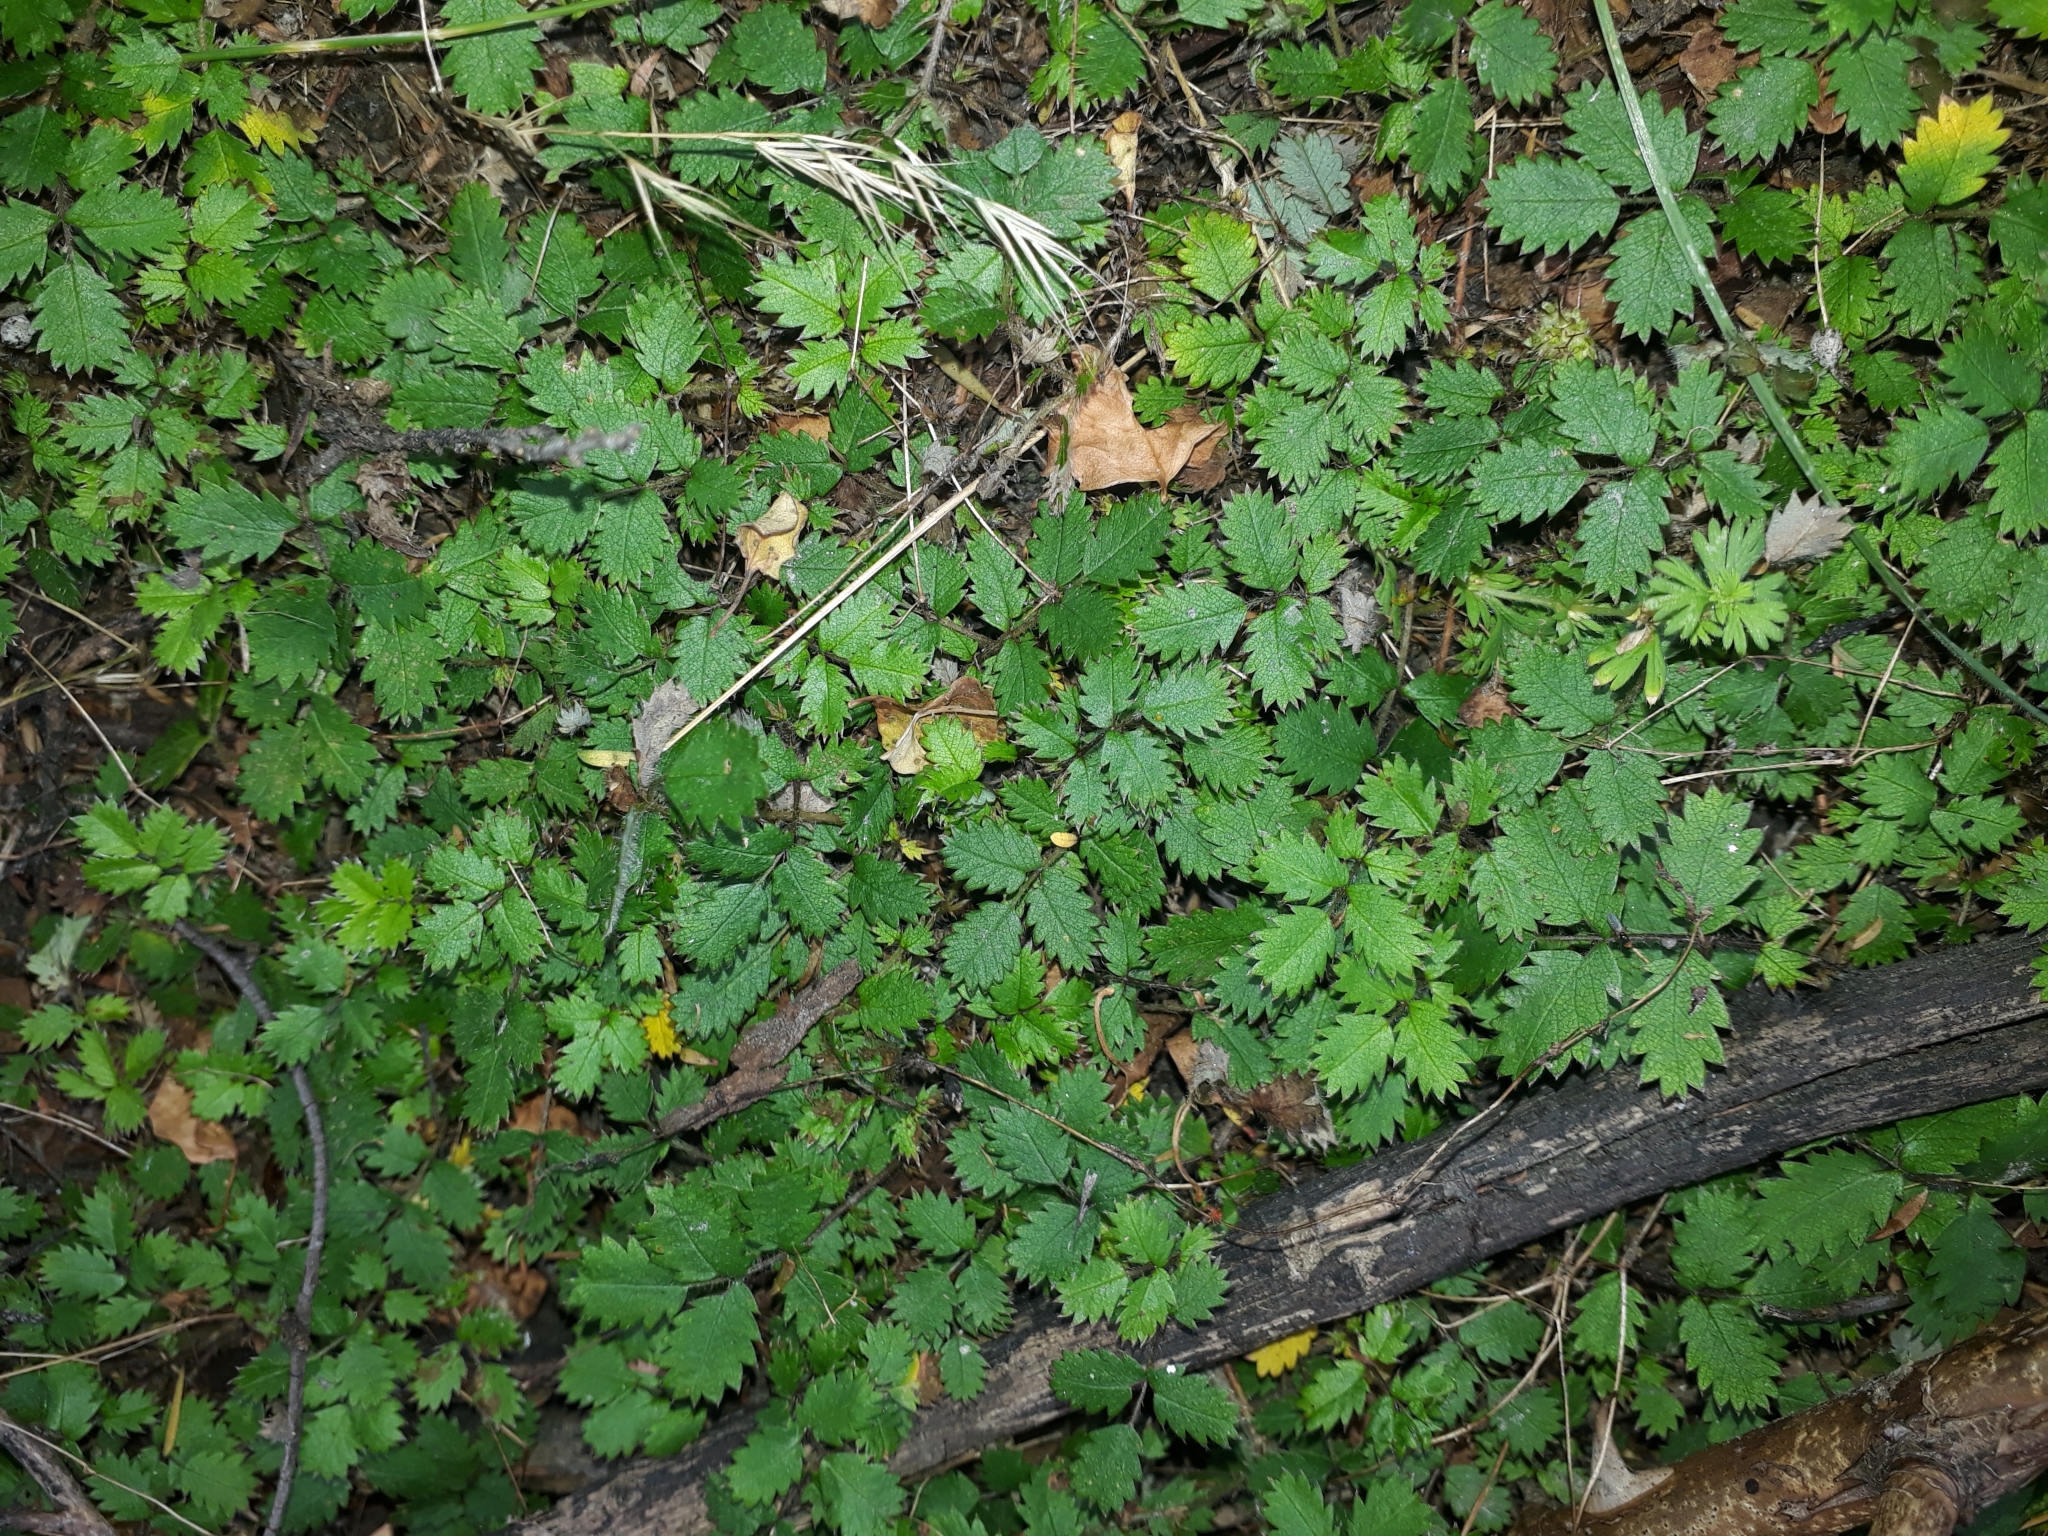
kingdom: Plantae
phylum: Tracheophyta
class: Magnoliopsida
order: Rosales
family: Rosaceae
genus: Acaena
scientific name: Acaena juvenca
